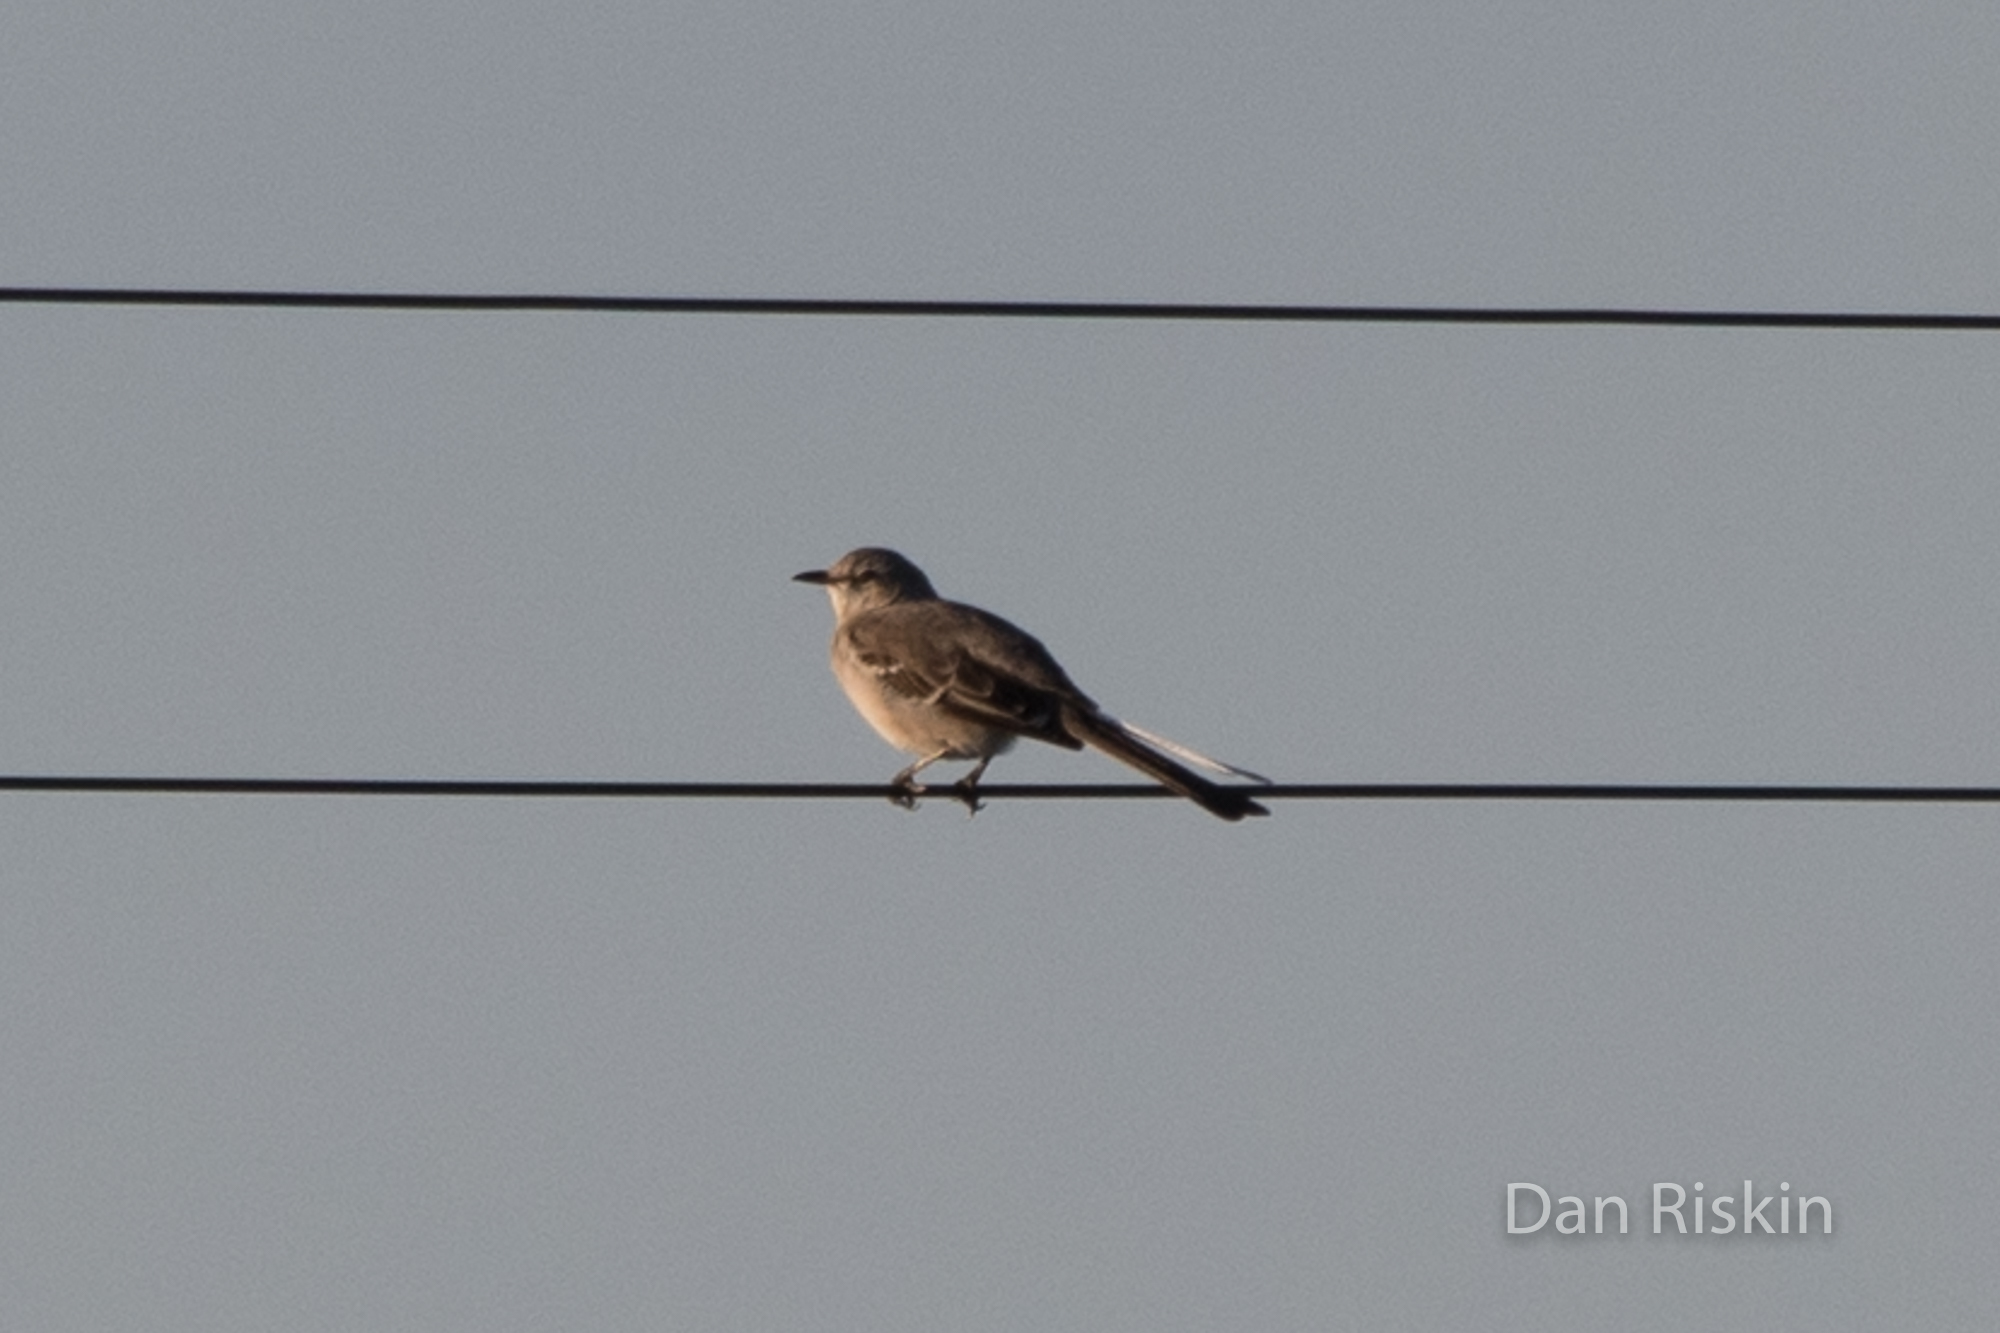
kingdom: Animalia
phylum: Chordata
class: Aves
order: Passeriformes
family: Mimidae
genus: Mimus
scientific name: Mimus polyglottos
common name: Northern mockingbird
